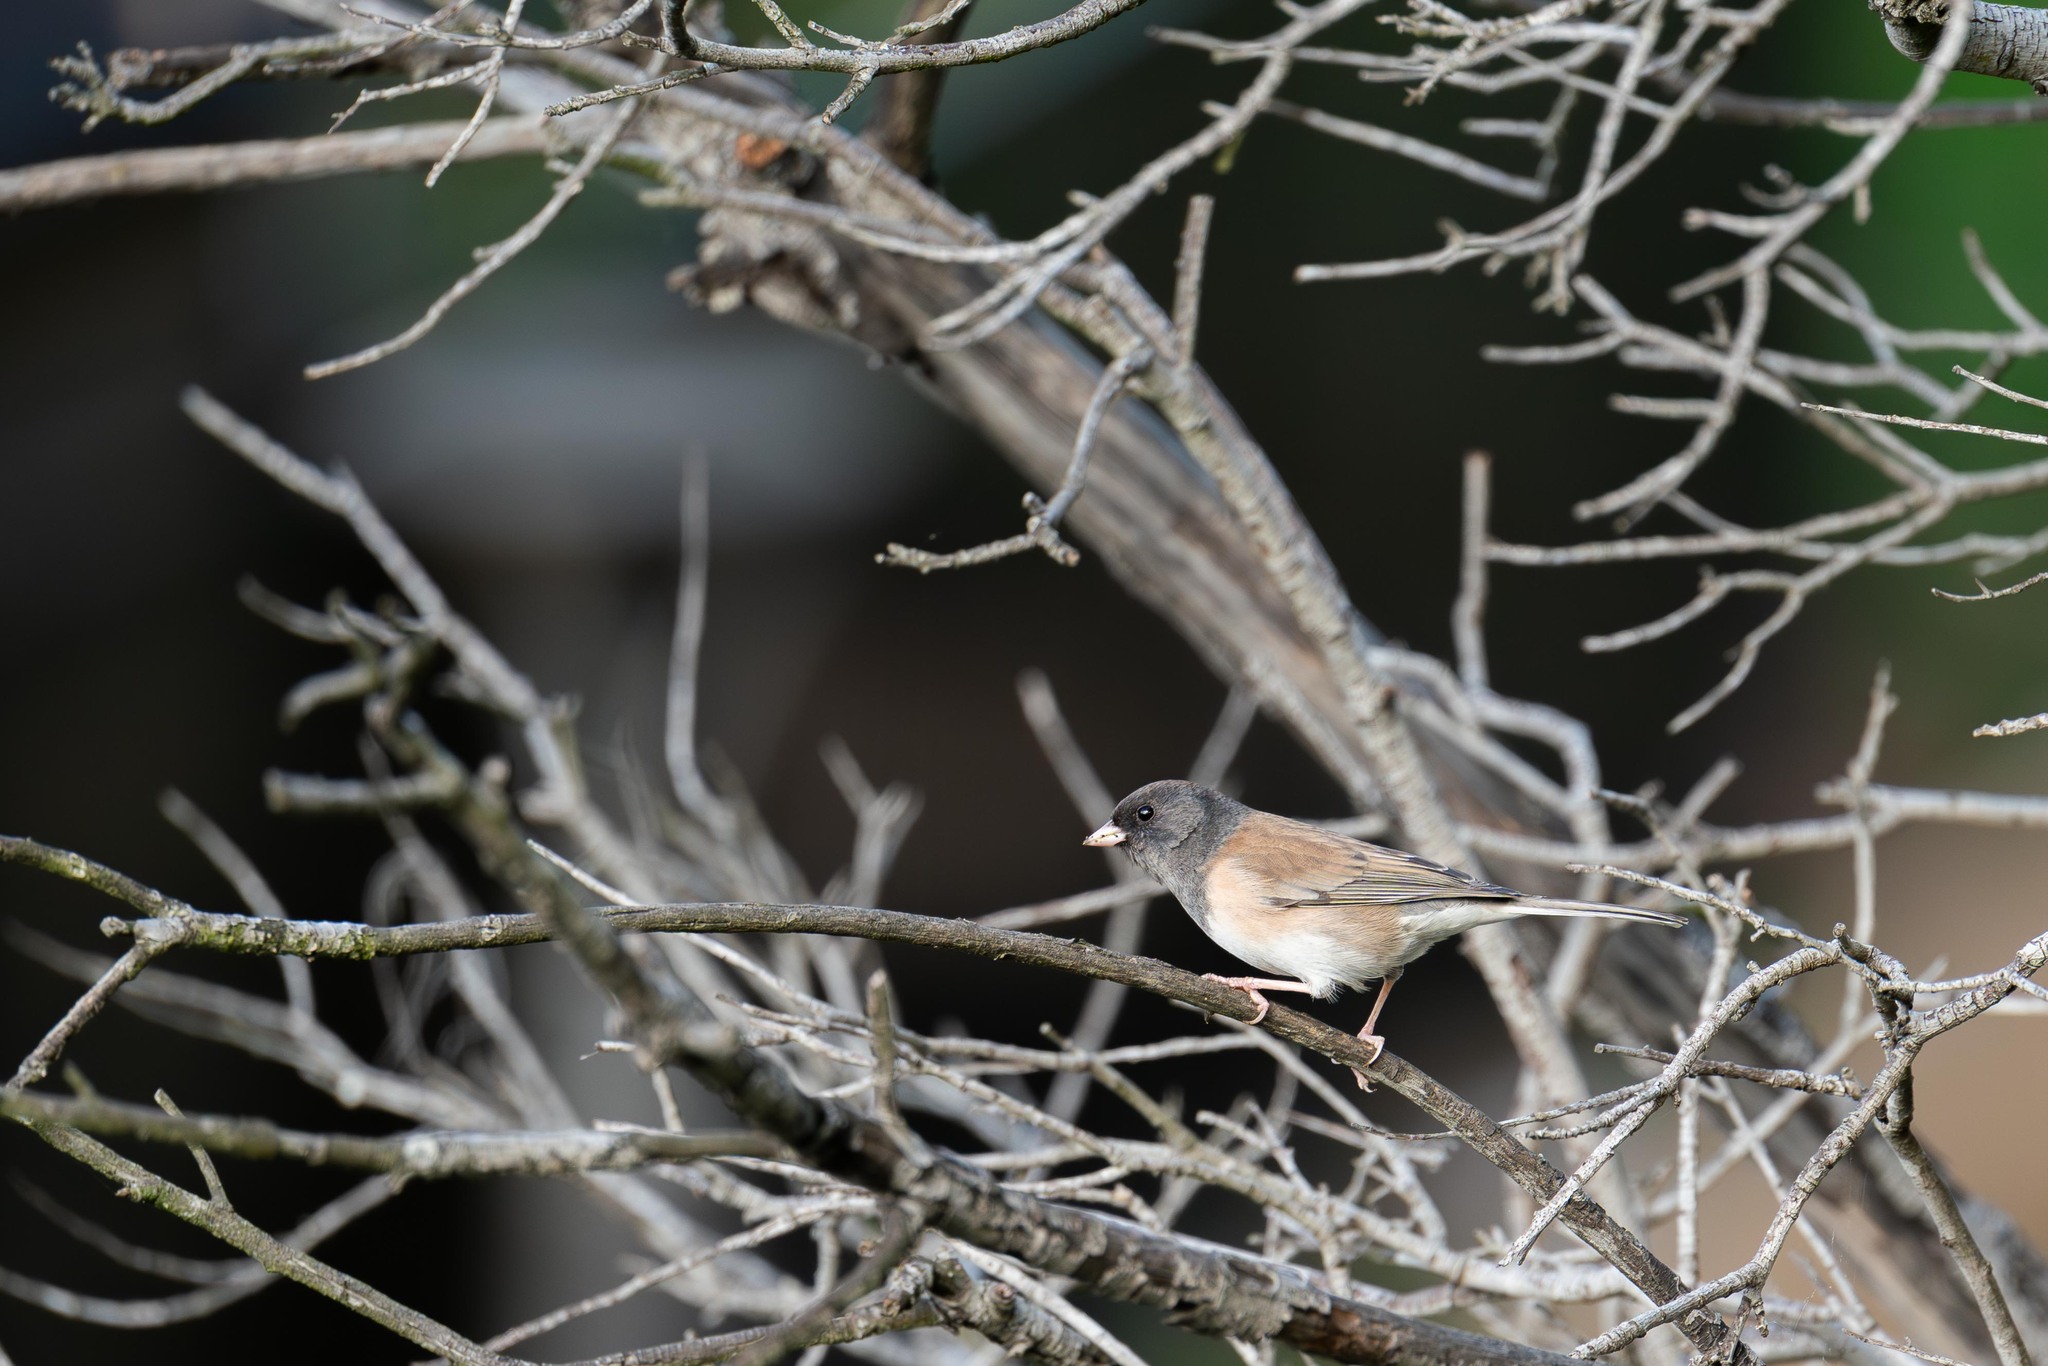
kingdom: Animalia
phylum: Chordata
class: Aves
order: Passeriformes
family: Passerellidae
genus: Junco
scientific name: Junco hyemalis
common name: Dark-eyed junco
